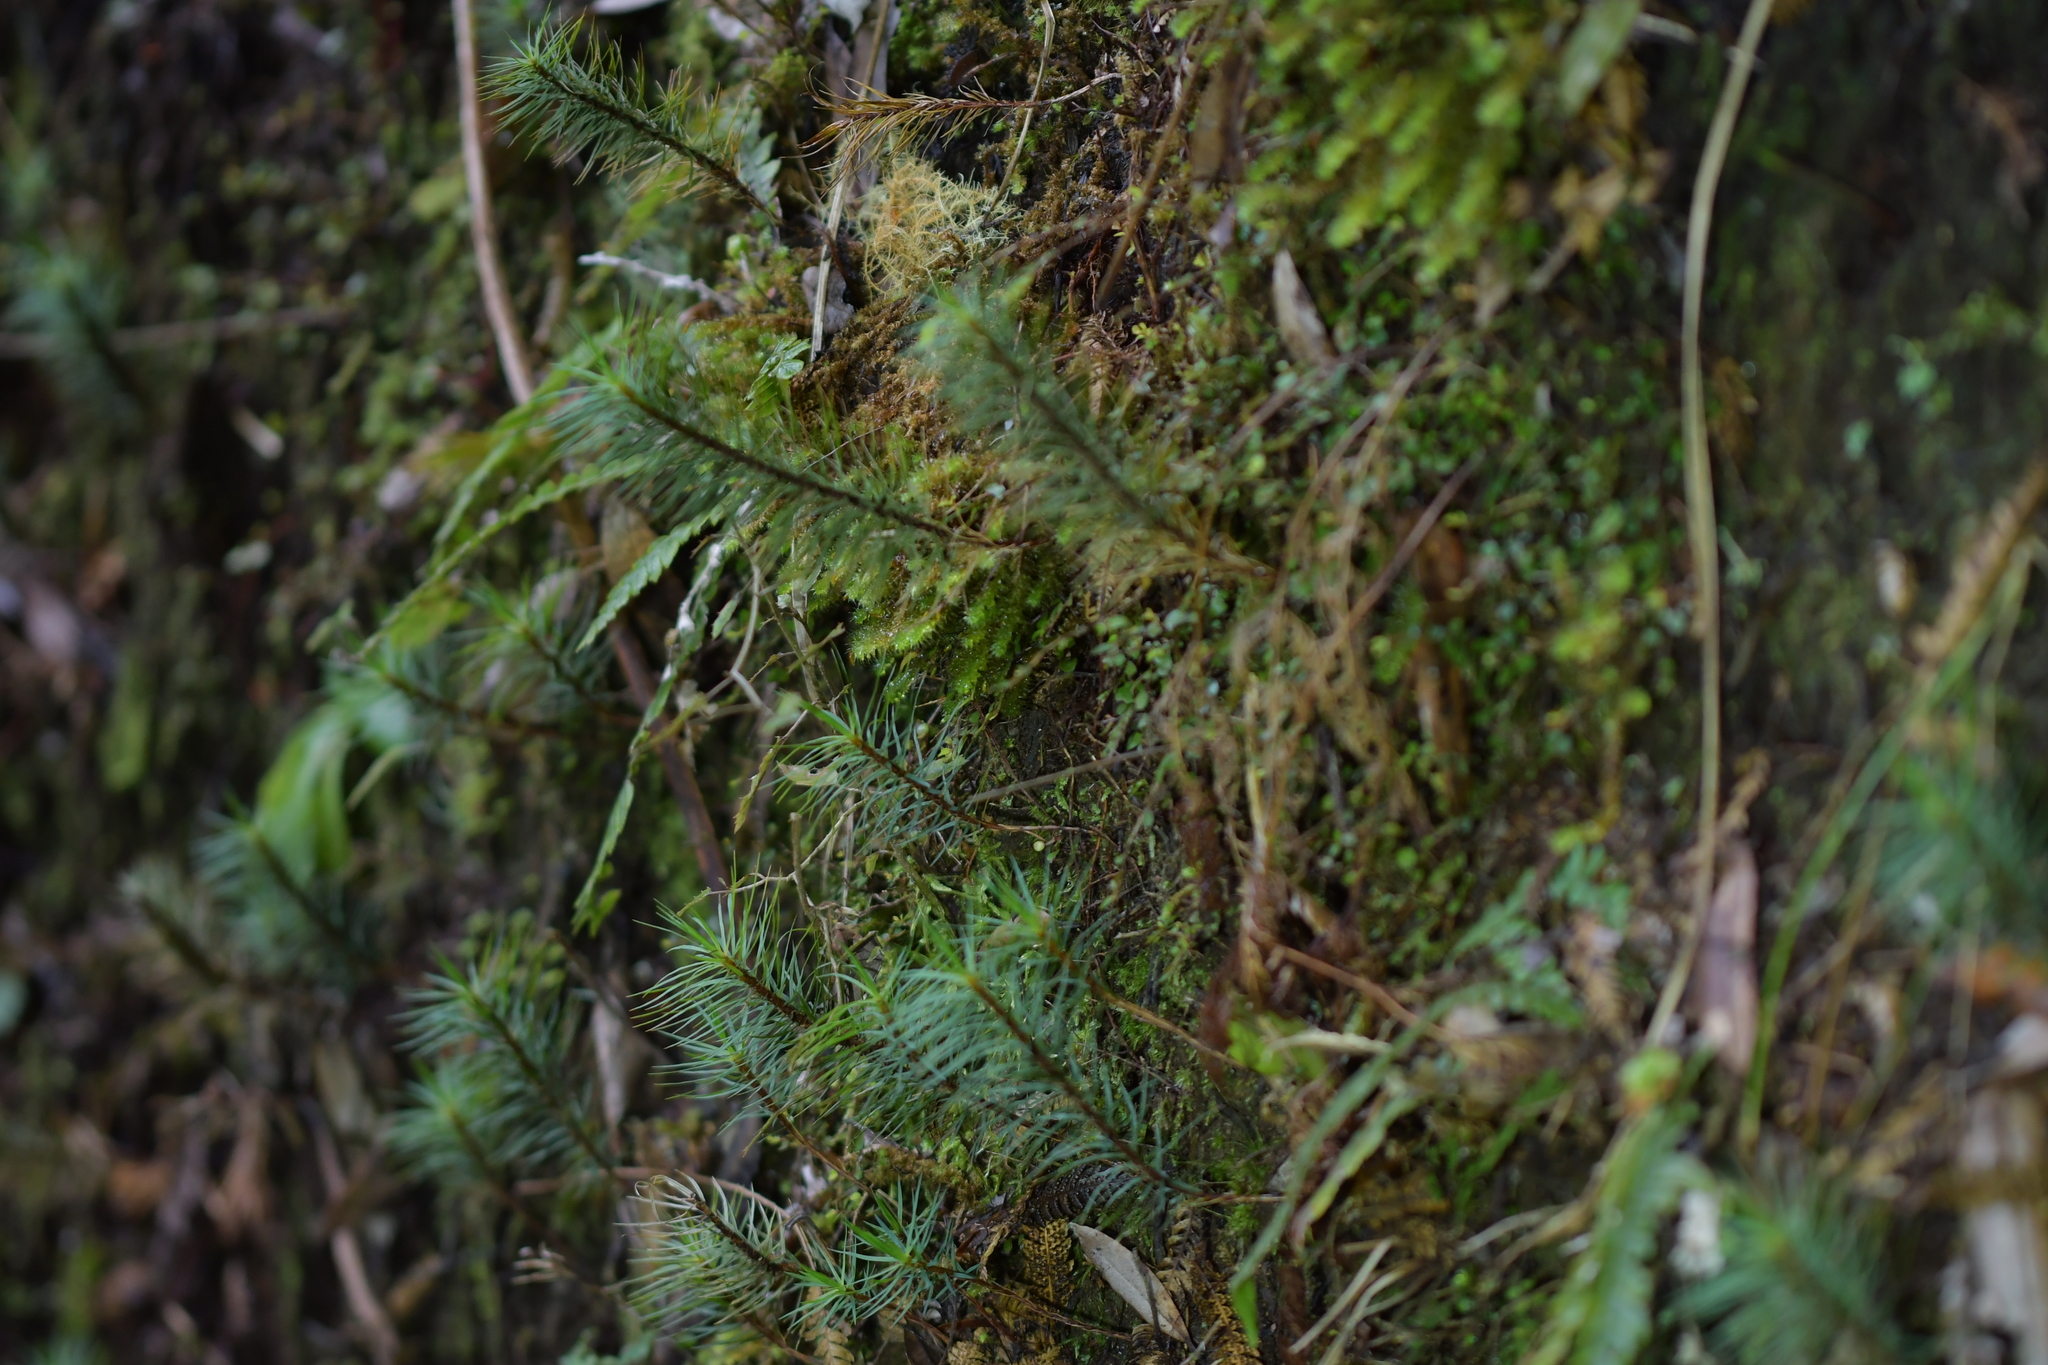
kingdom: Plantae
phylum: Bryophyta
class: Polytrichopsida
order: Polytrichales
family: Polytrichaceae
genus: Dawsonia
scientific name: Dawsonia superba
